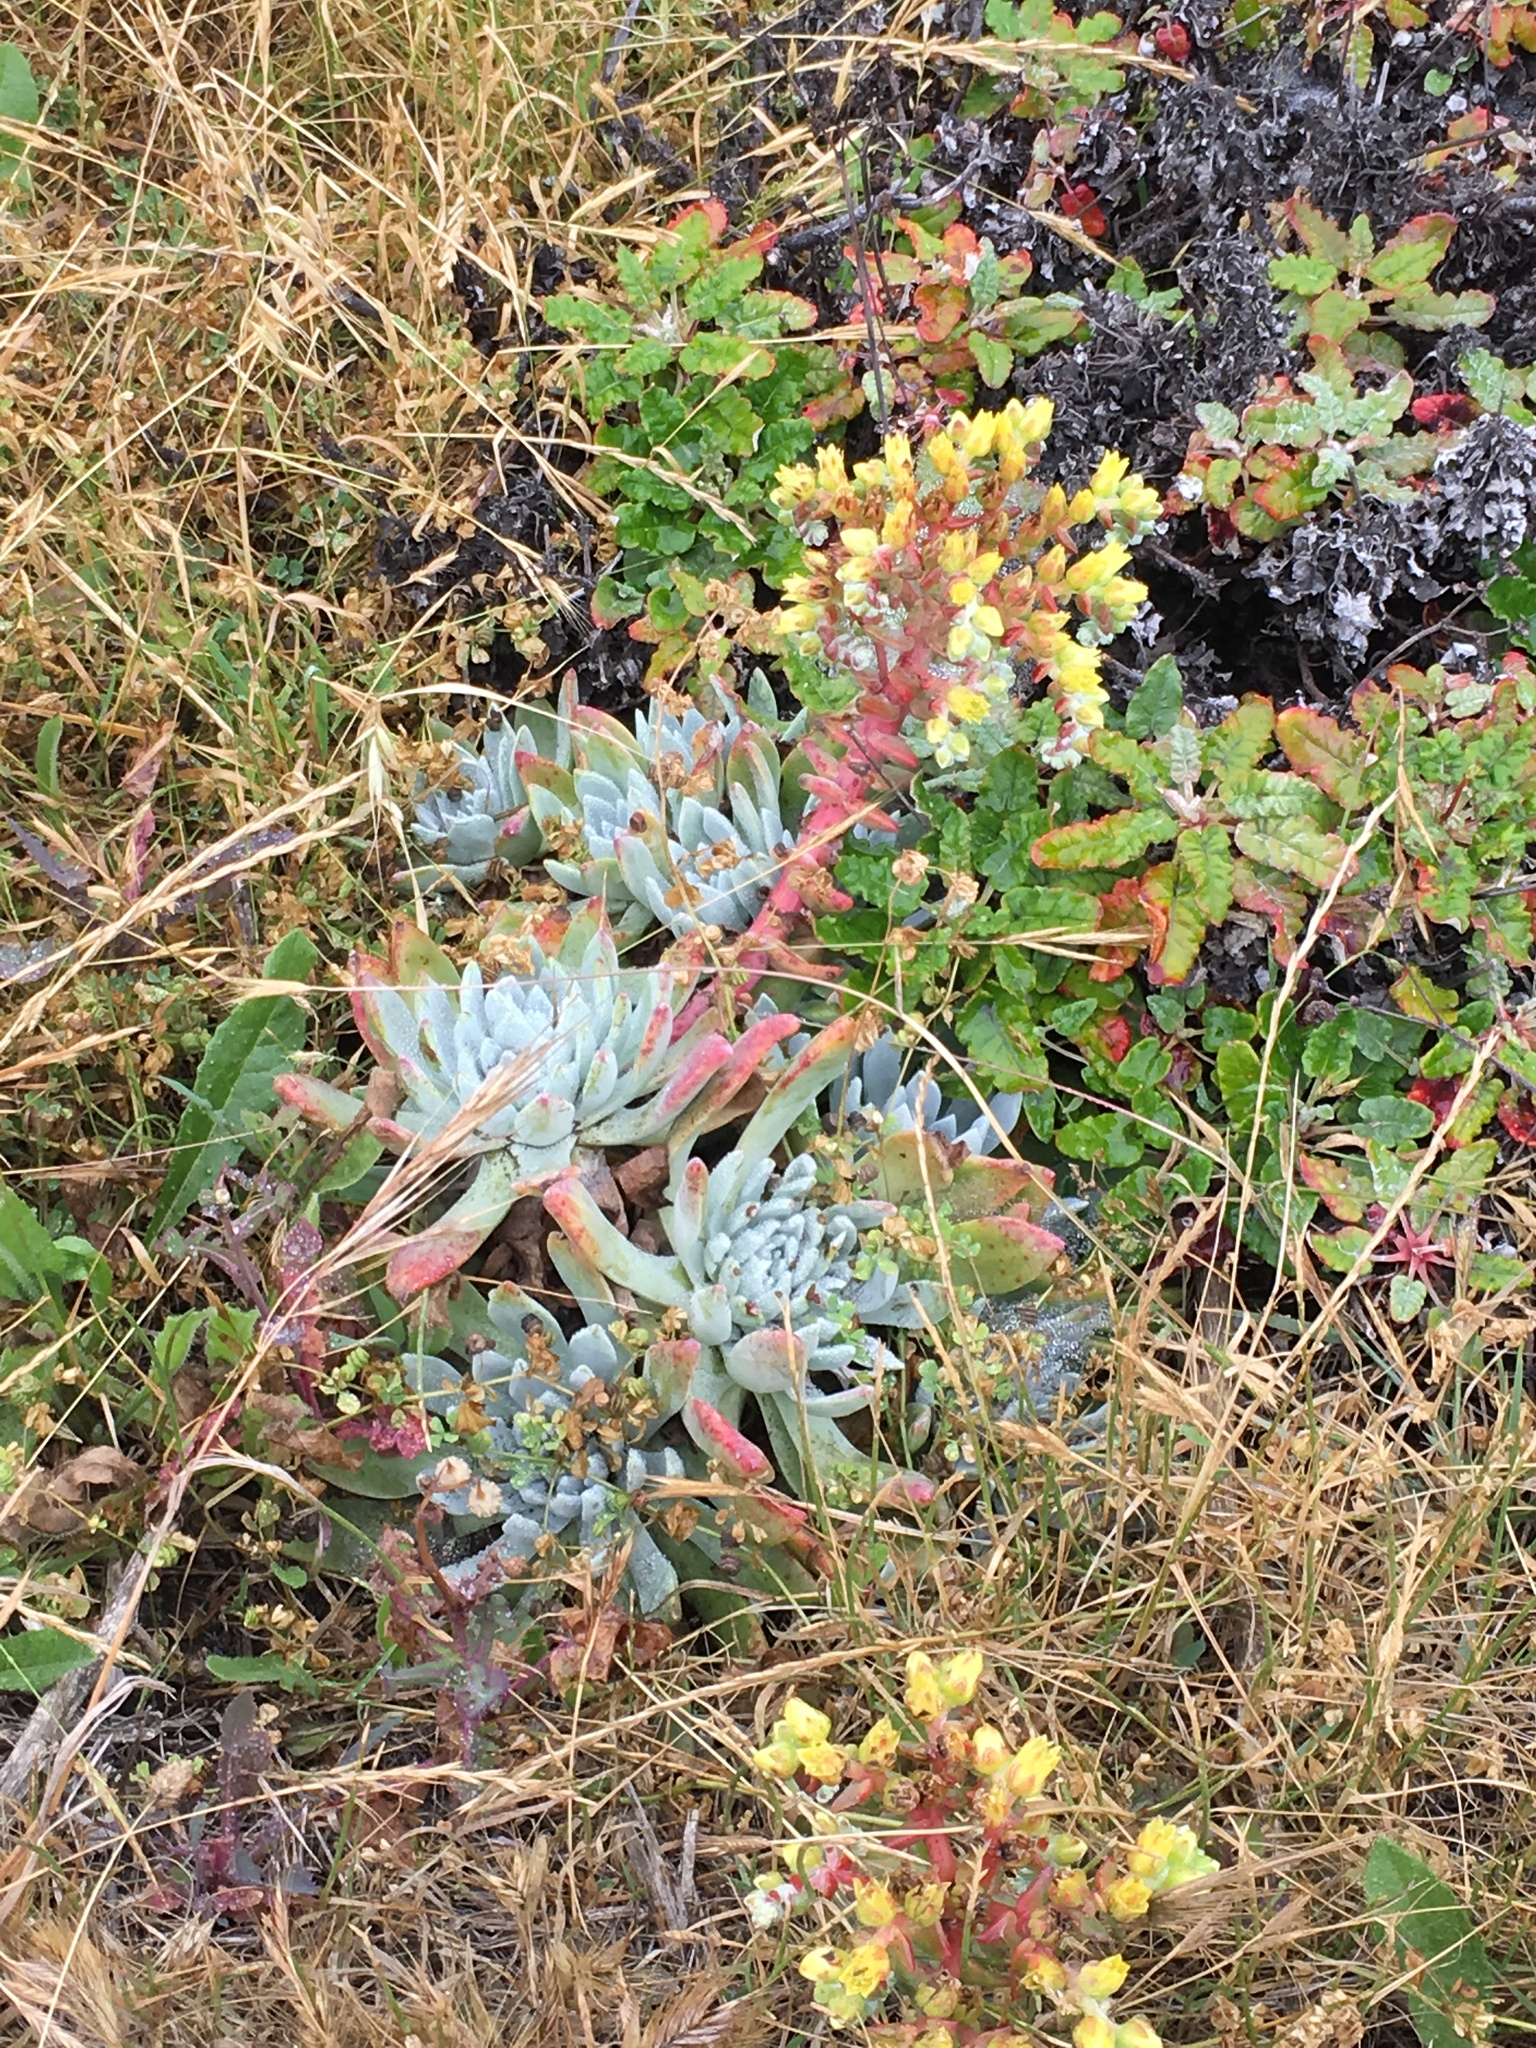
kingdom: Plantae
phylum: Tracheophyta
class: Magnoliopsida
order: Saxifragales
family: Crassulaceae
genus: Dudleya
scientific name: Dudleya greenei
